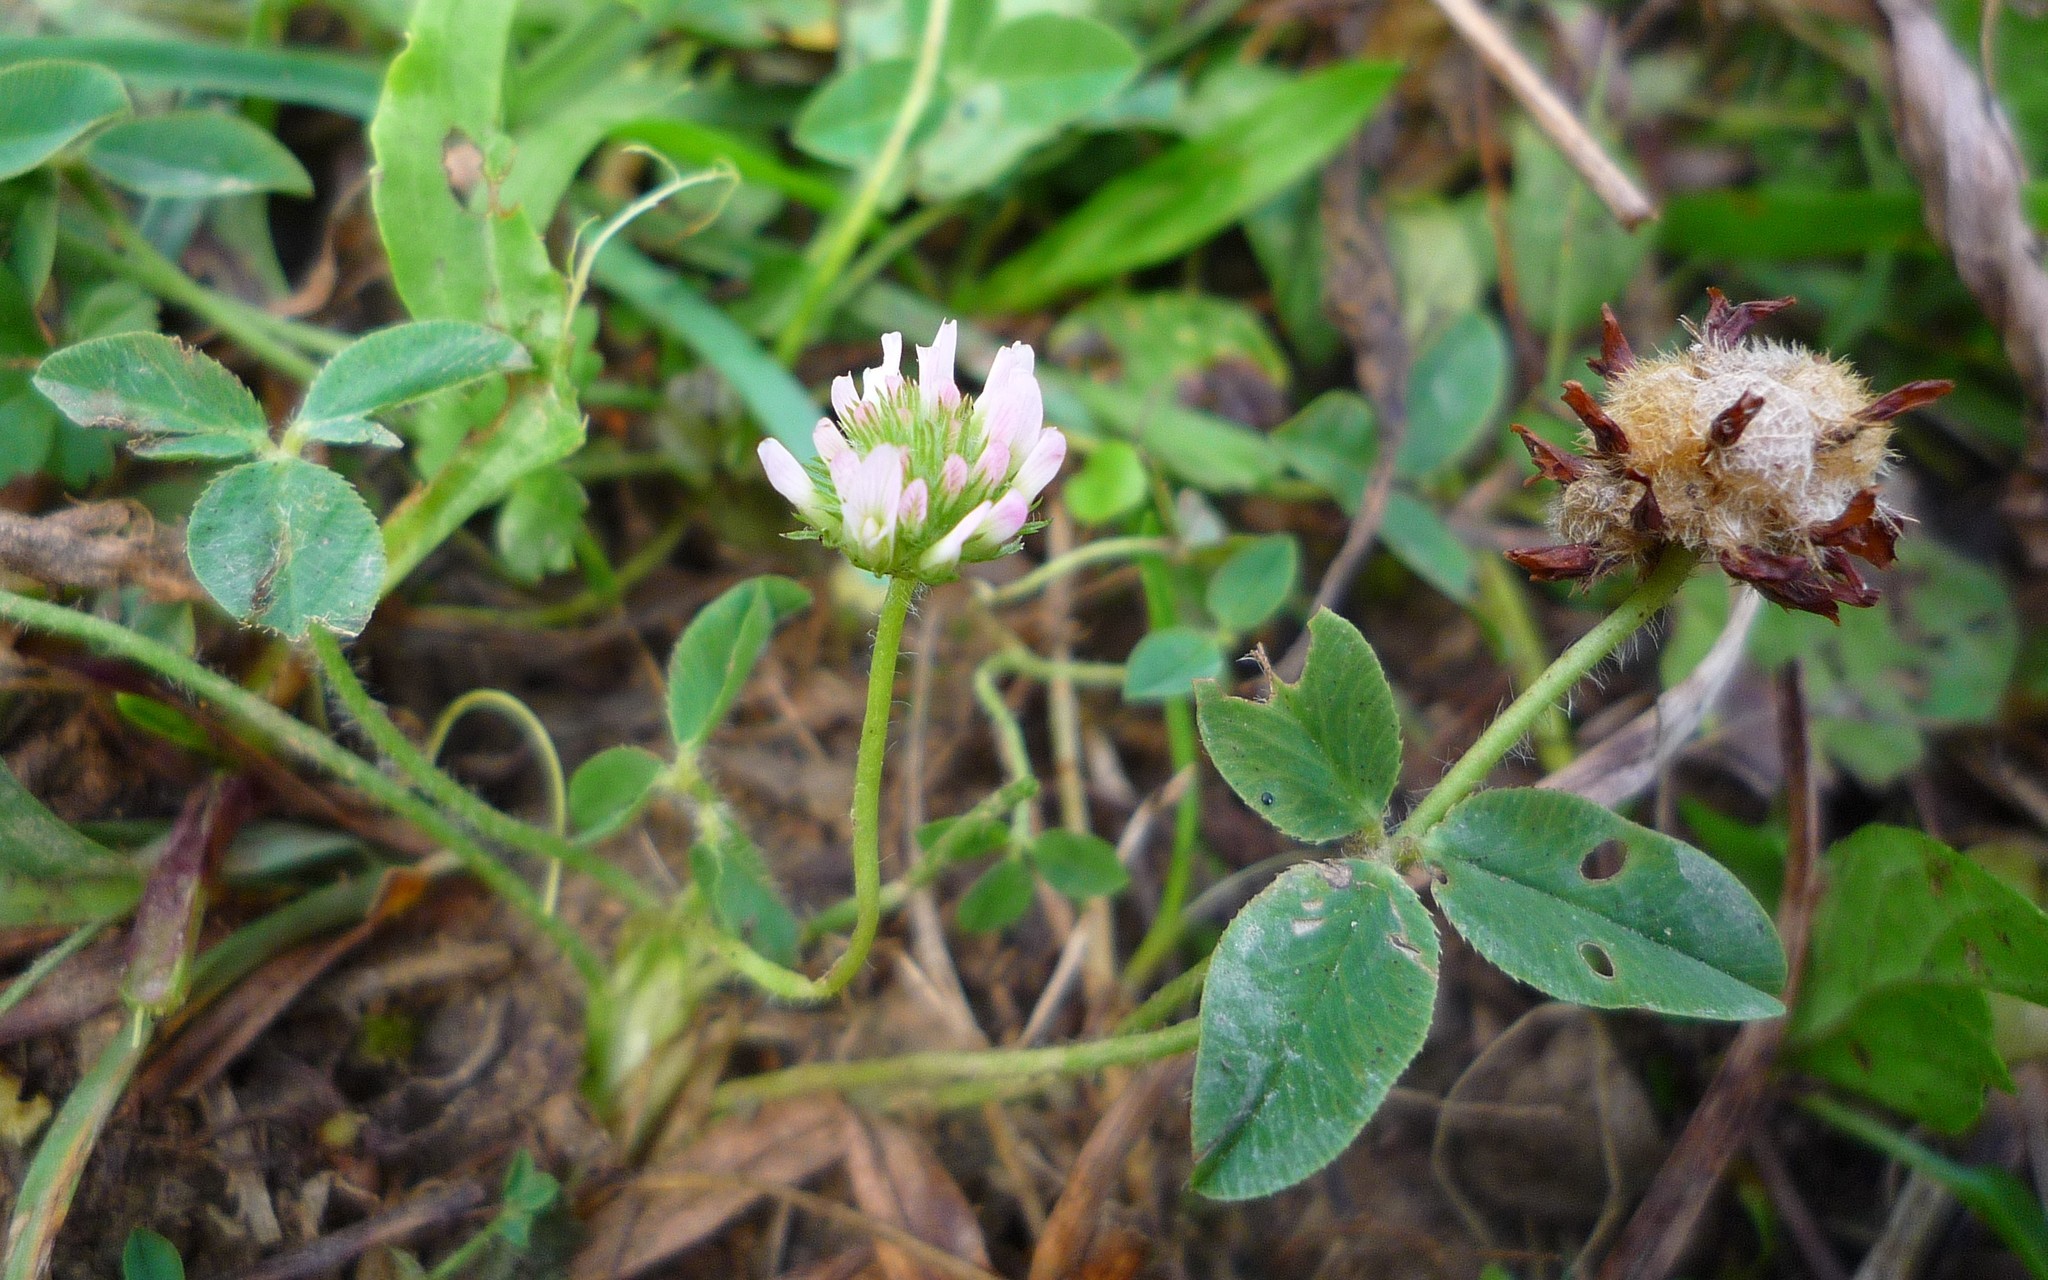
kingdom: Plantae
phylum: Tracheophyta
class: Magnoliopsida
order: Fabales
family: Fabaceae
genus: Trifolium
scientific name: Trifolium fragiferum
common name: Strawberry clover
